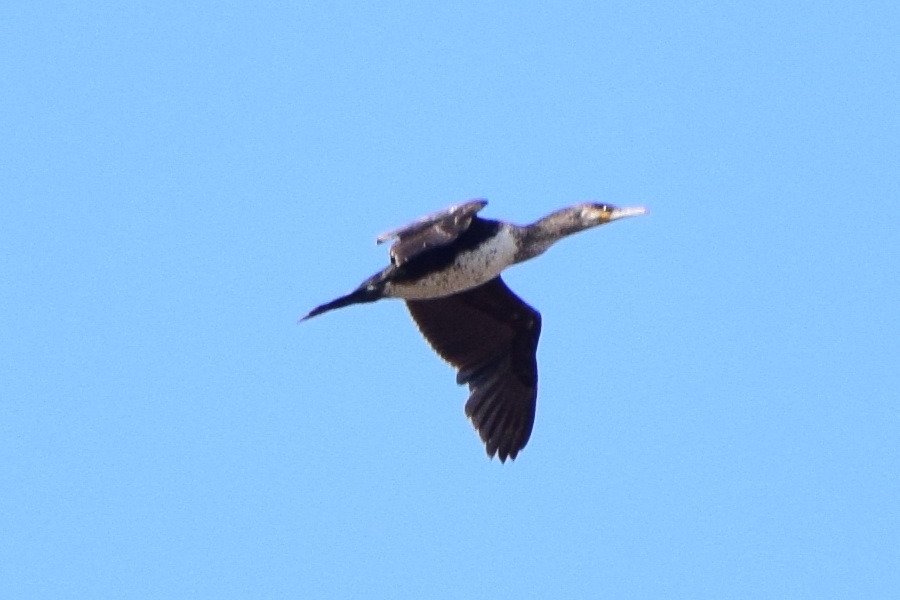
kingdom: Animalia
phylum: Chordata
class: Aves
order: Suliformes
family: Phalacrocoracidae
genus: Phalacrocorax
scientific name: Phalacrocorax carbo
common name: Great cormorant
